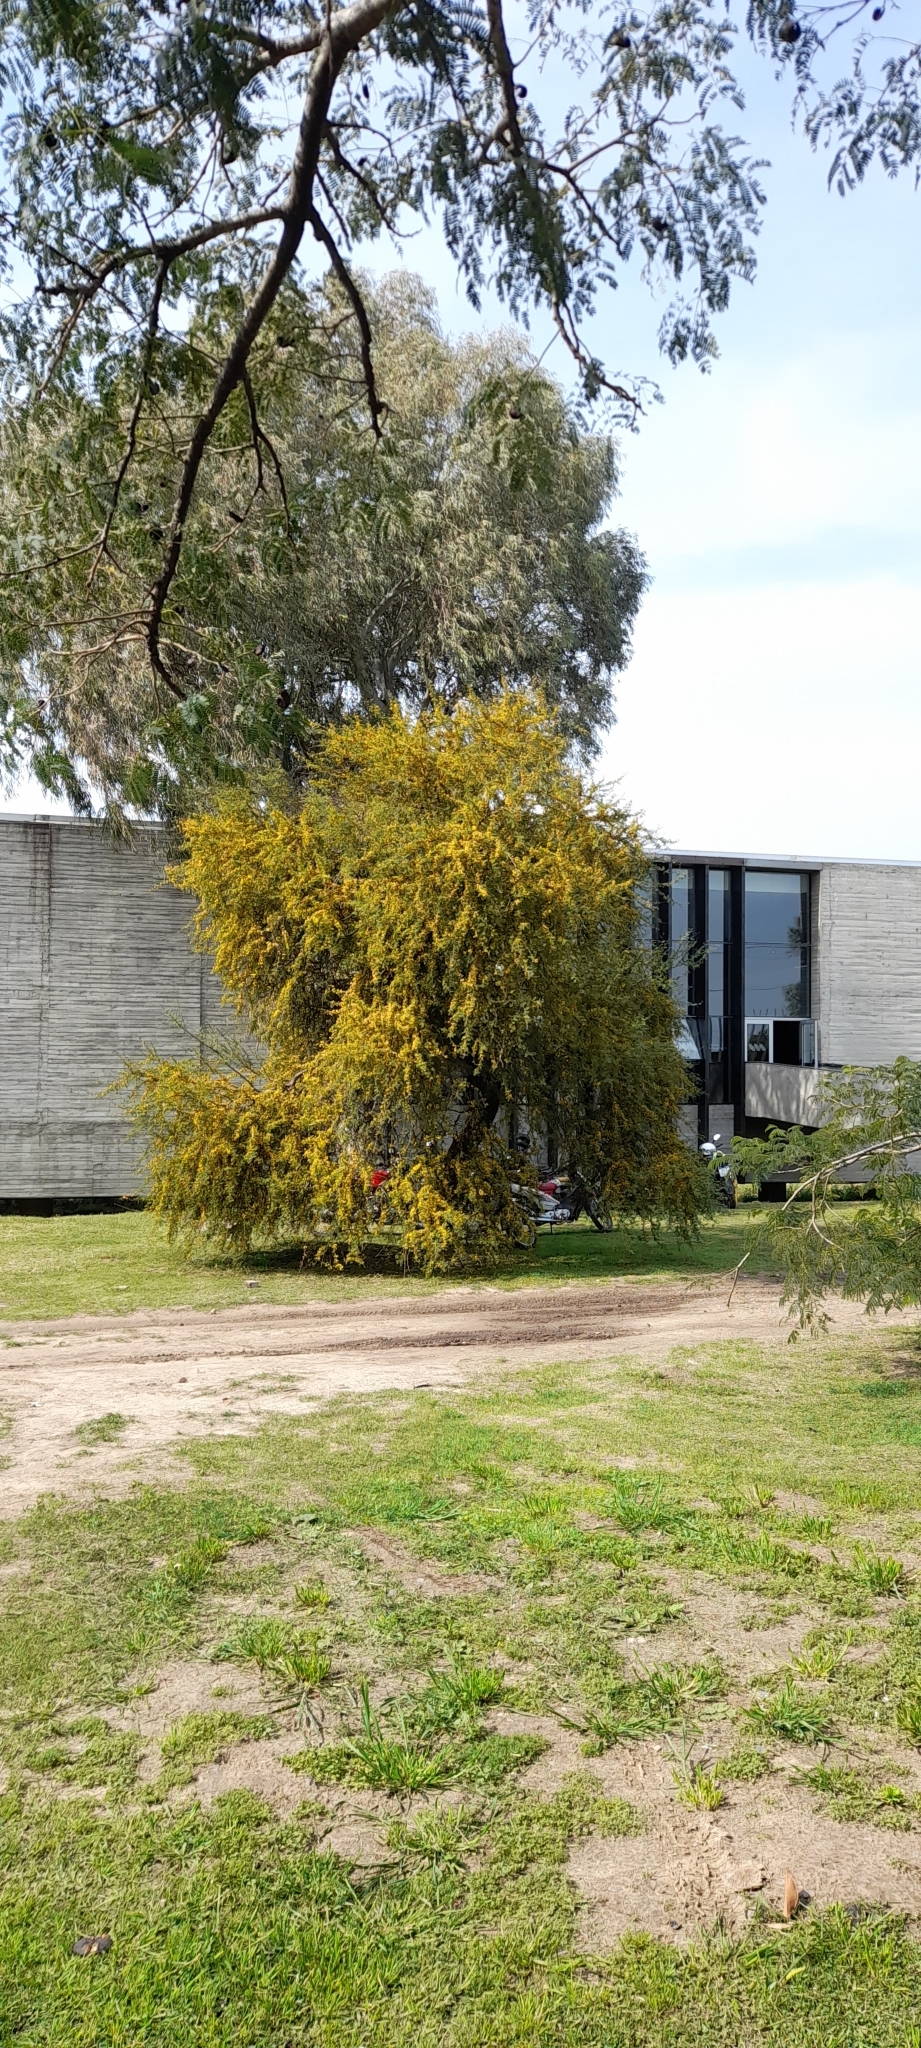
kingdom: Plantae
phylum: Tracheophyta
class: Magnoliopsida
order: Fabales
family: Fabaceae
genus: Vachellia
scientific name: Vachellia caven
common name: Roman cassie
